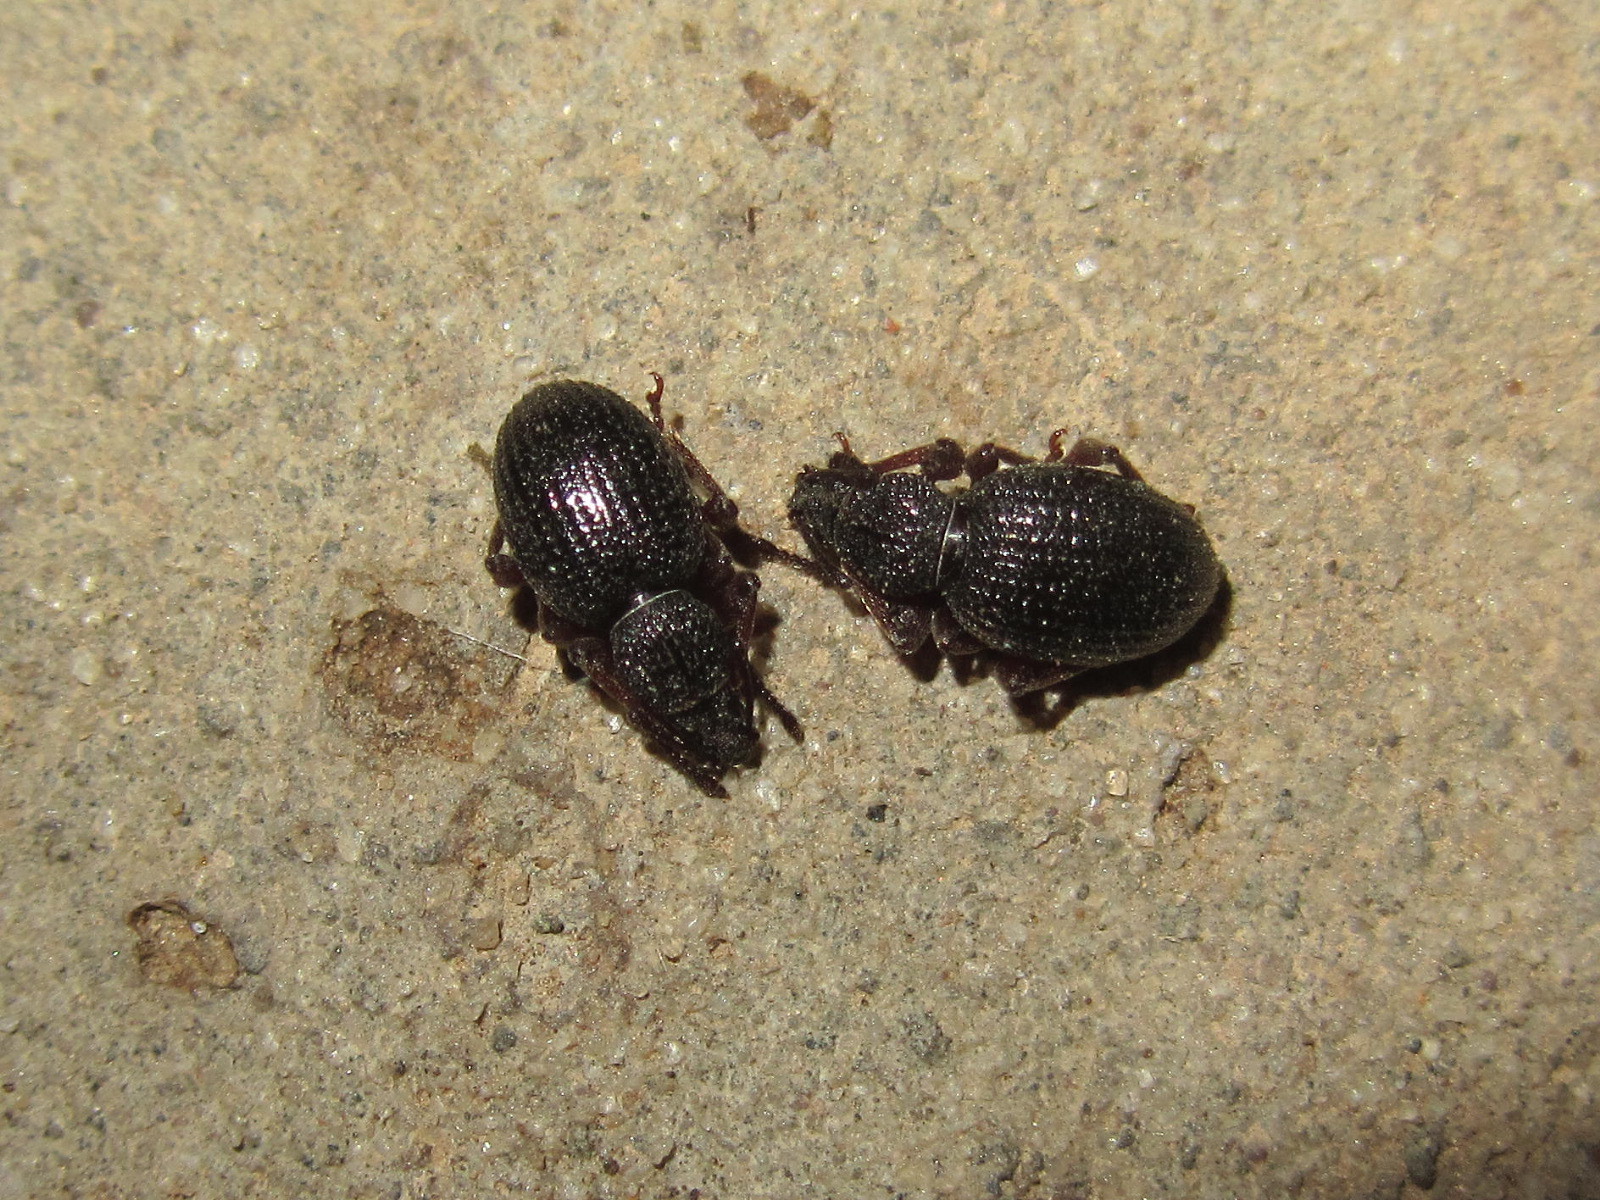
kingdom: Animalia
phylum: Arthropoda
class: Insecta
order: Coleoptera
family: Curculionidae
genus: Otiorhynchus
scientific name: Otiorhynchus ovatus
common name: Strawberry root weevil
